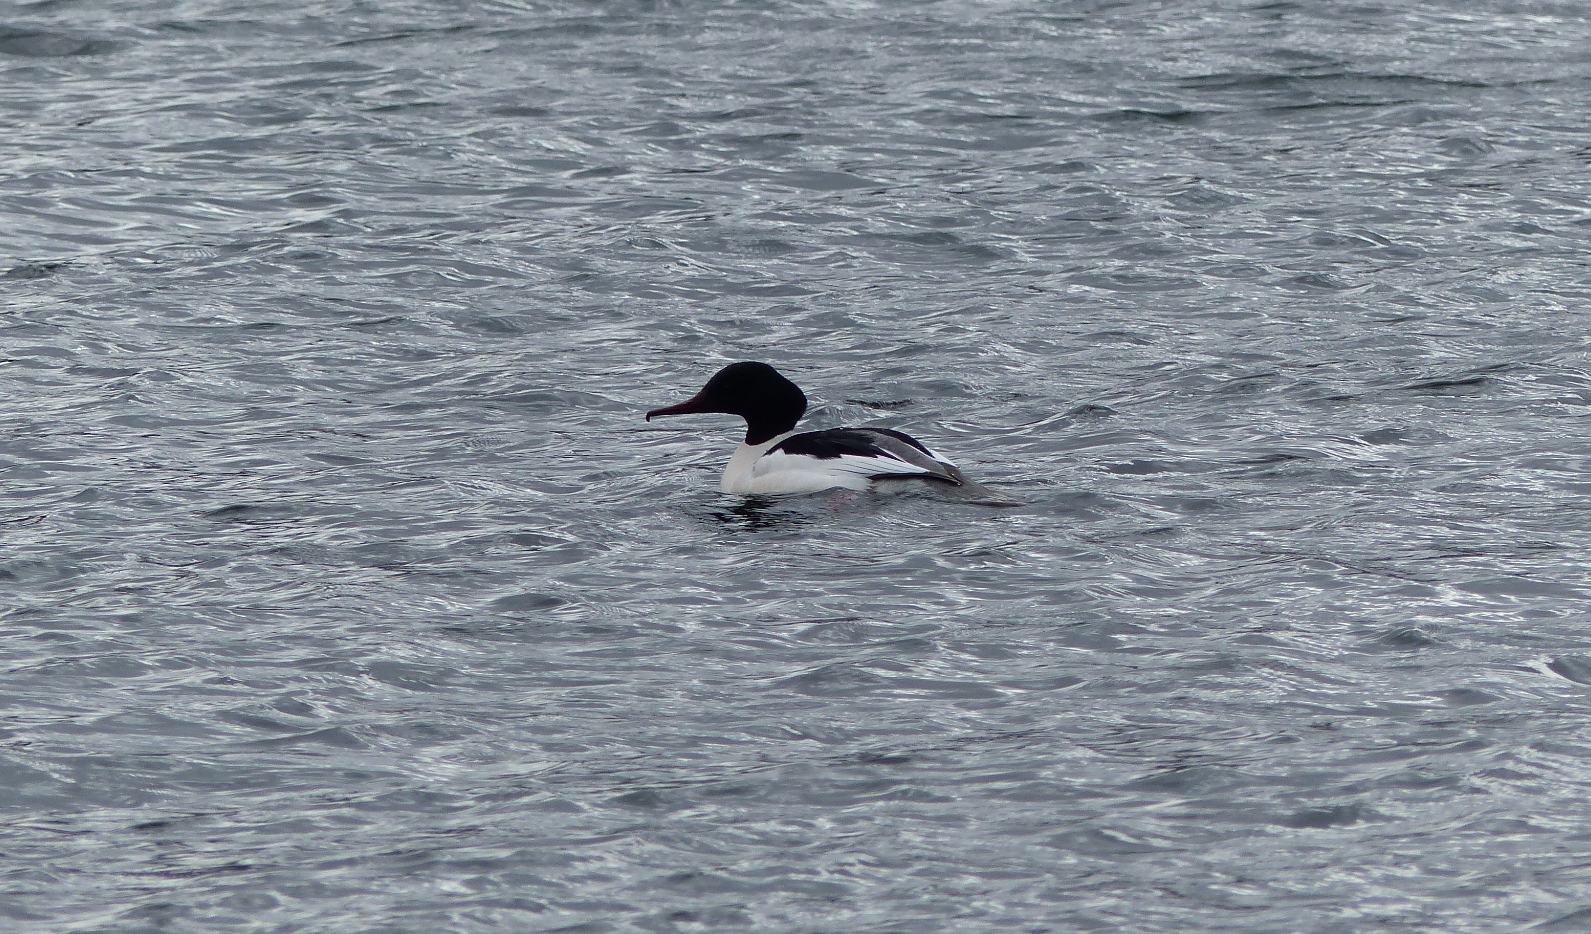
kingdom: Animalia
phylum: Chordata
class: Aves
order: Anseriformes
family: Anatidae
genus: Mergus
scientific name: Mergus merganser
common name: Common merganser
